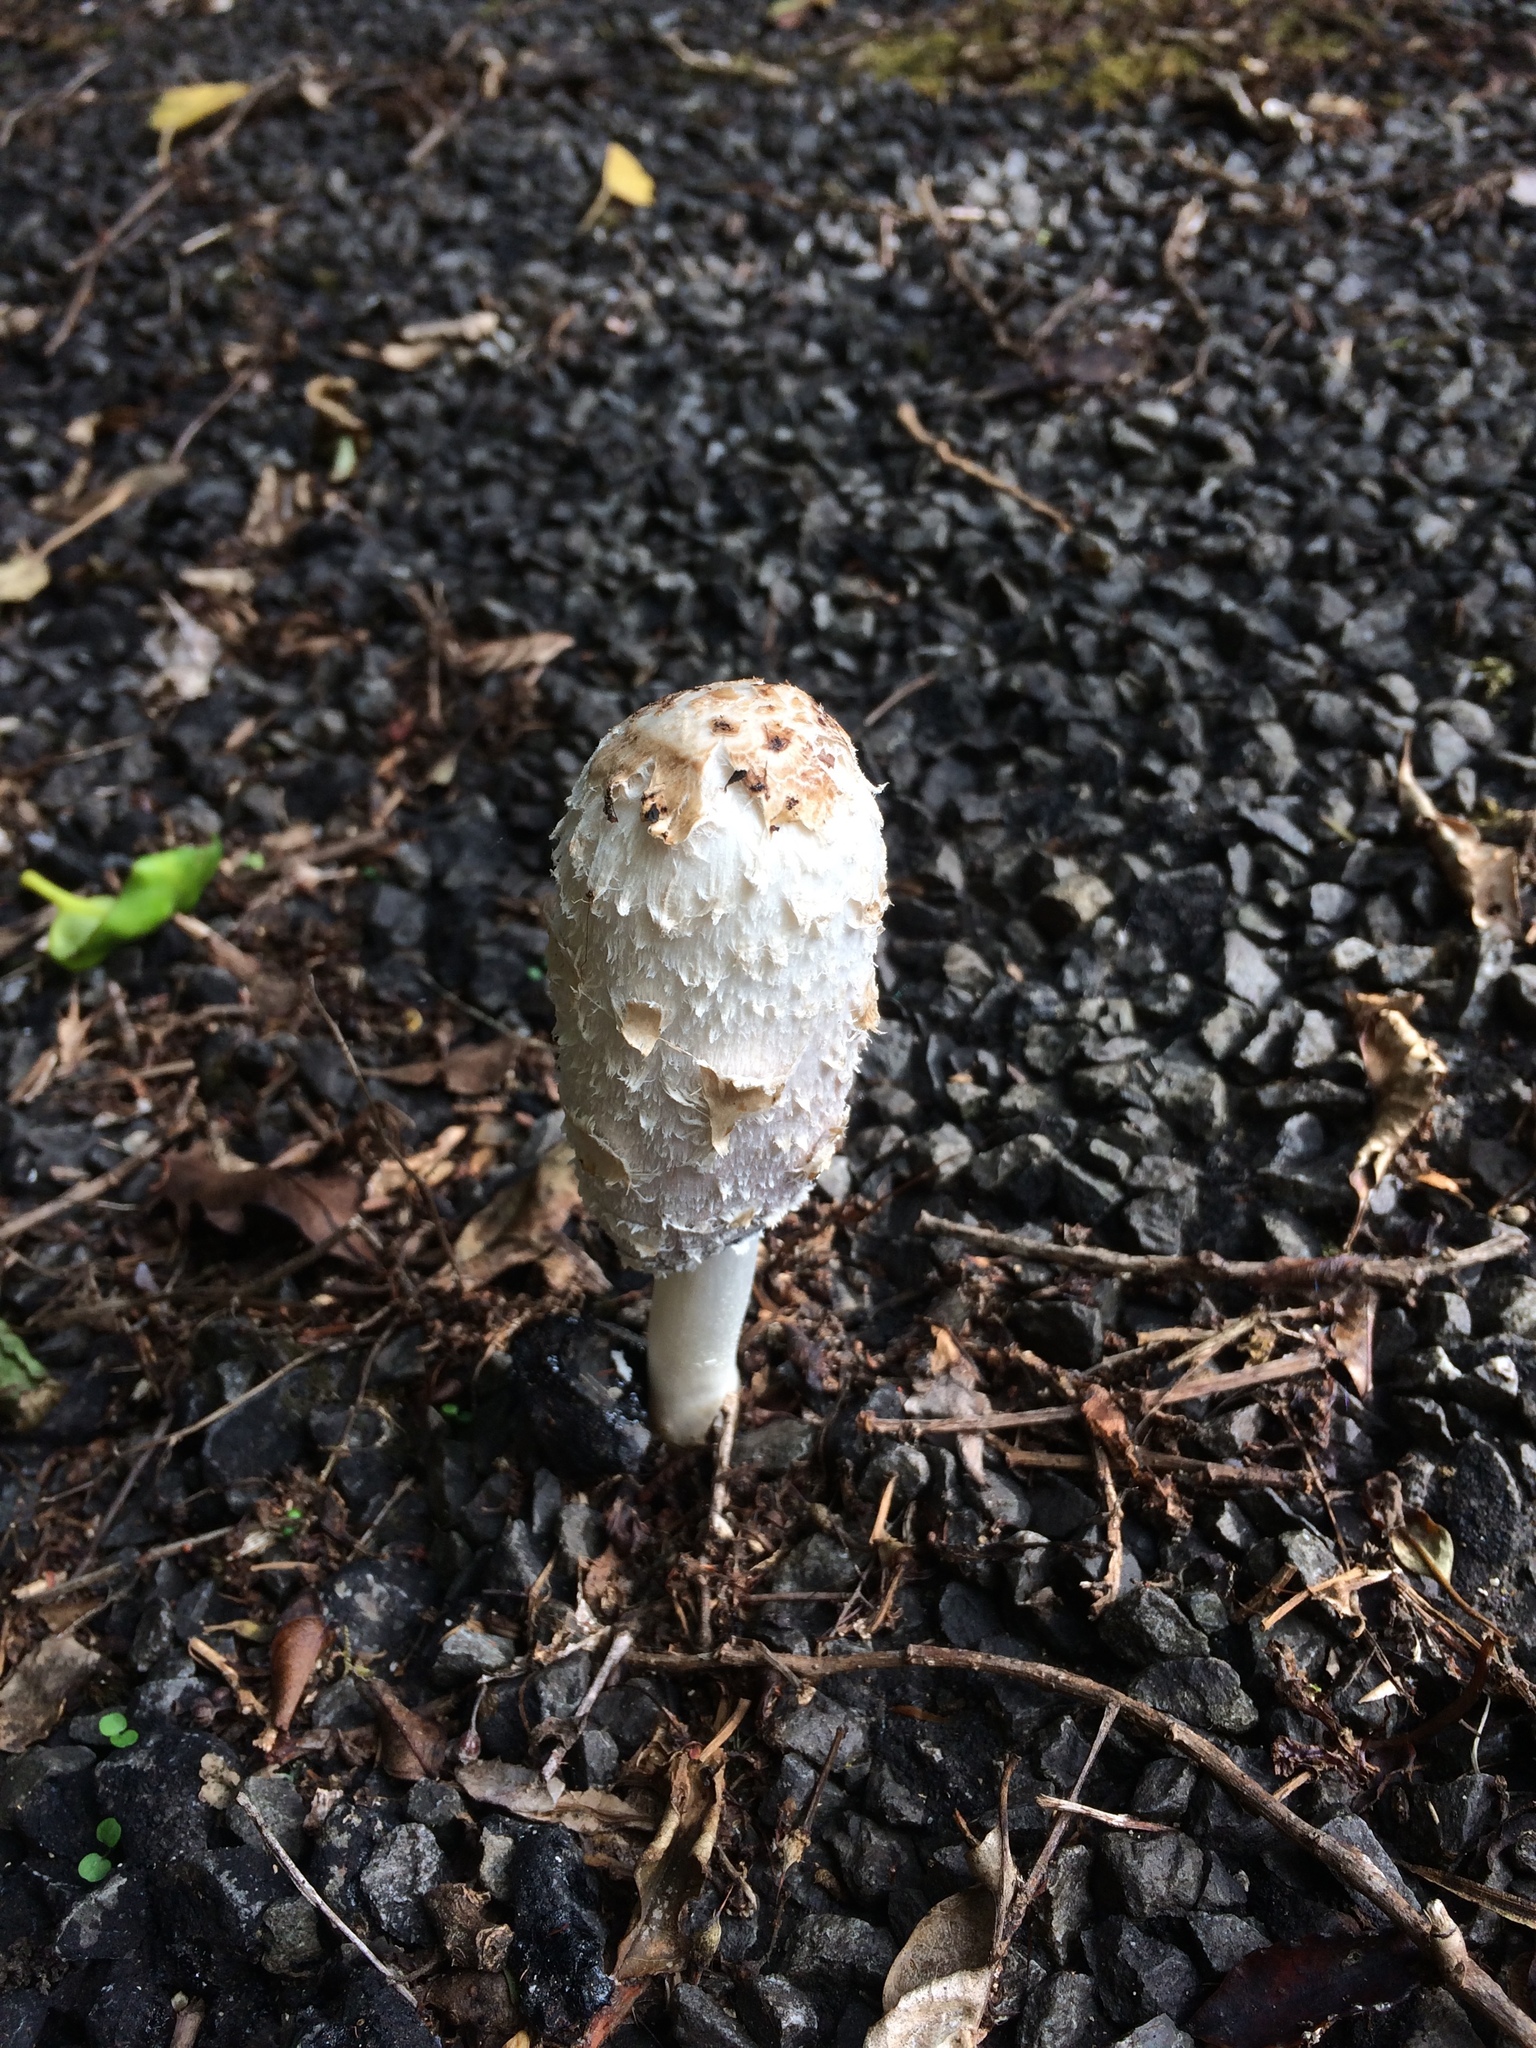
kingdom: Fungi
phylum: Basidiomycota
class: Agaricomycetes
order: Agaricales
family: Agaricaceae
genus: Coprinus
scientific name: Coprinus comatus
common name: Lawyer's wig
